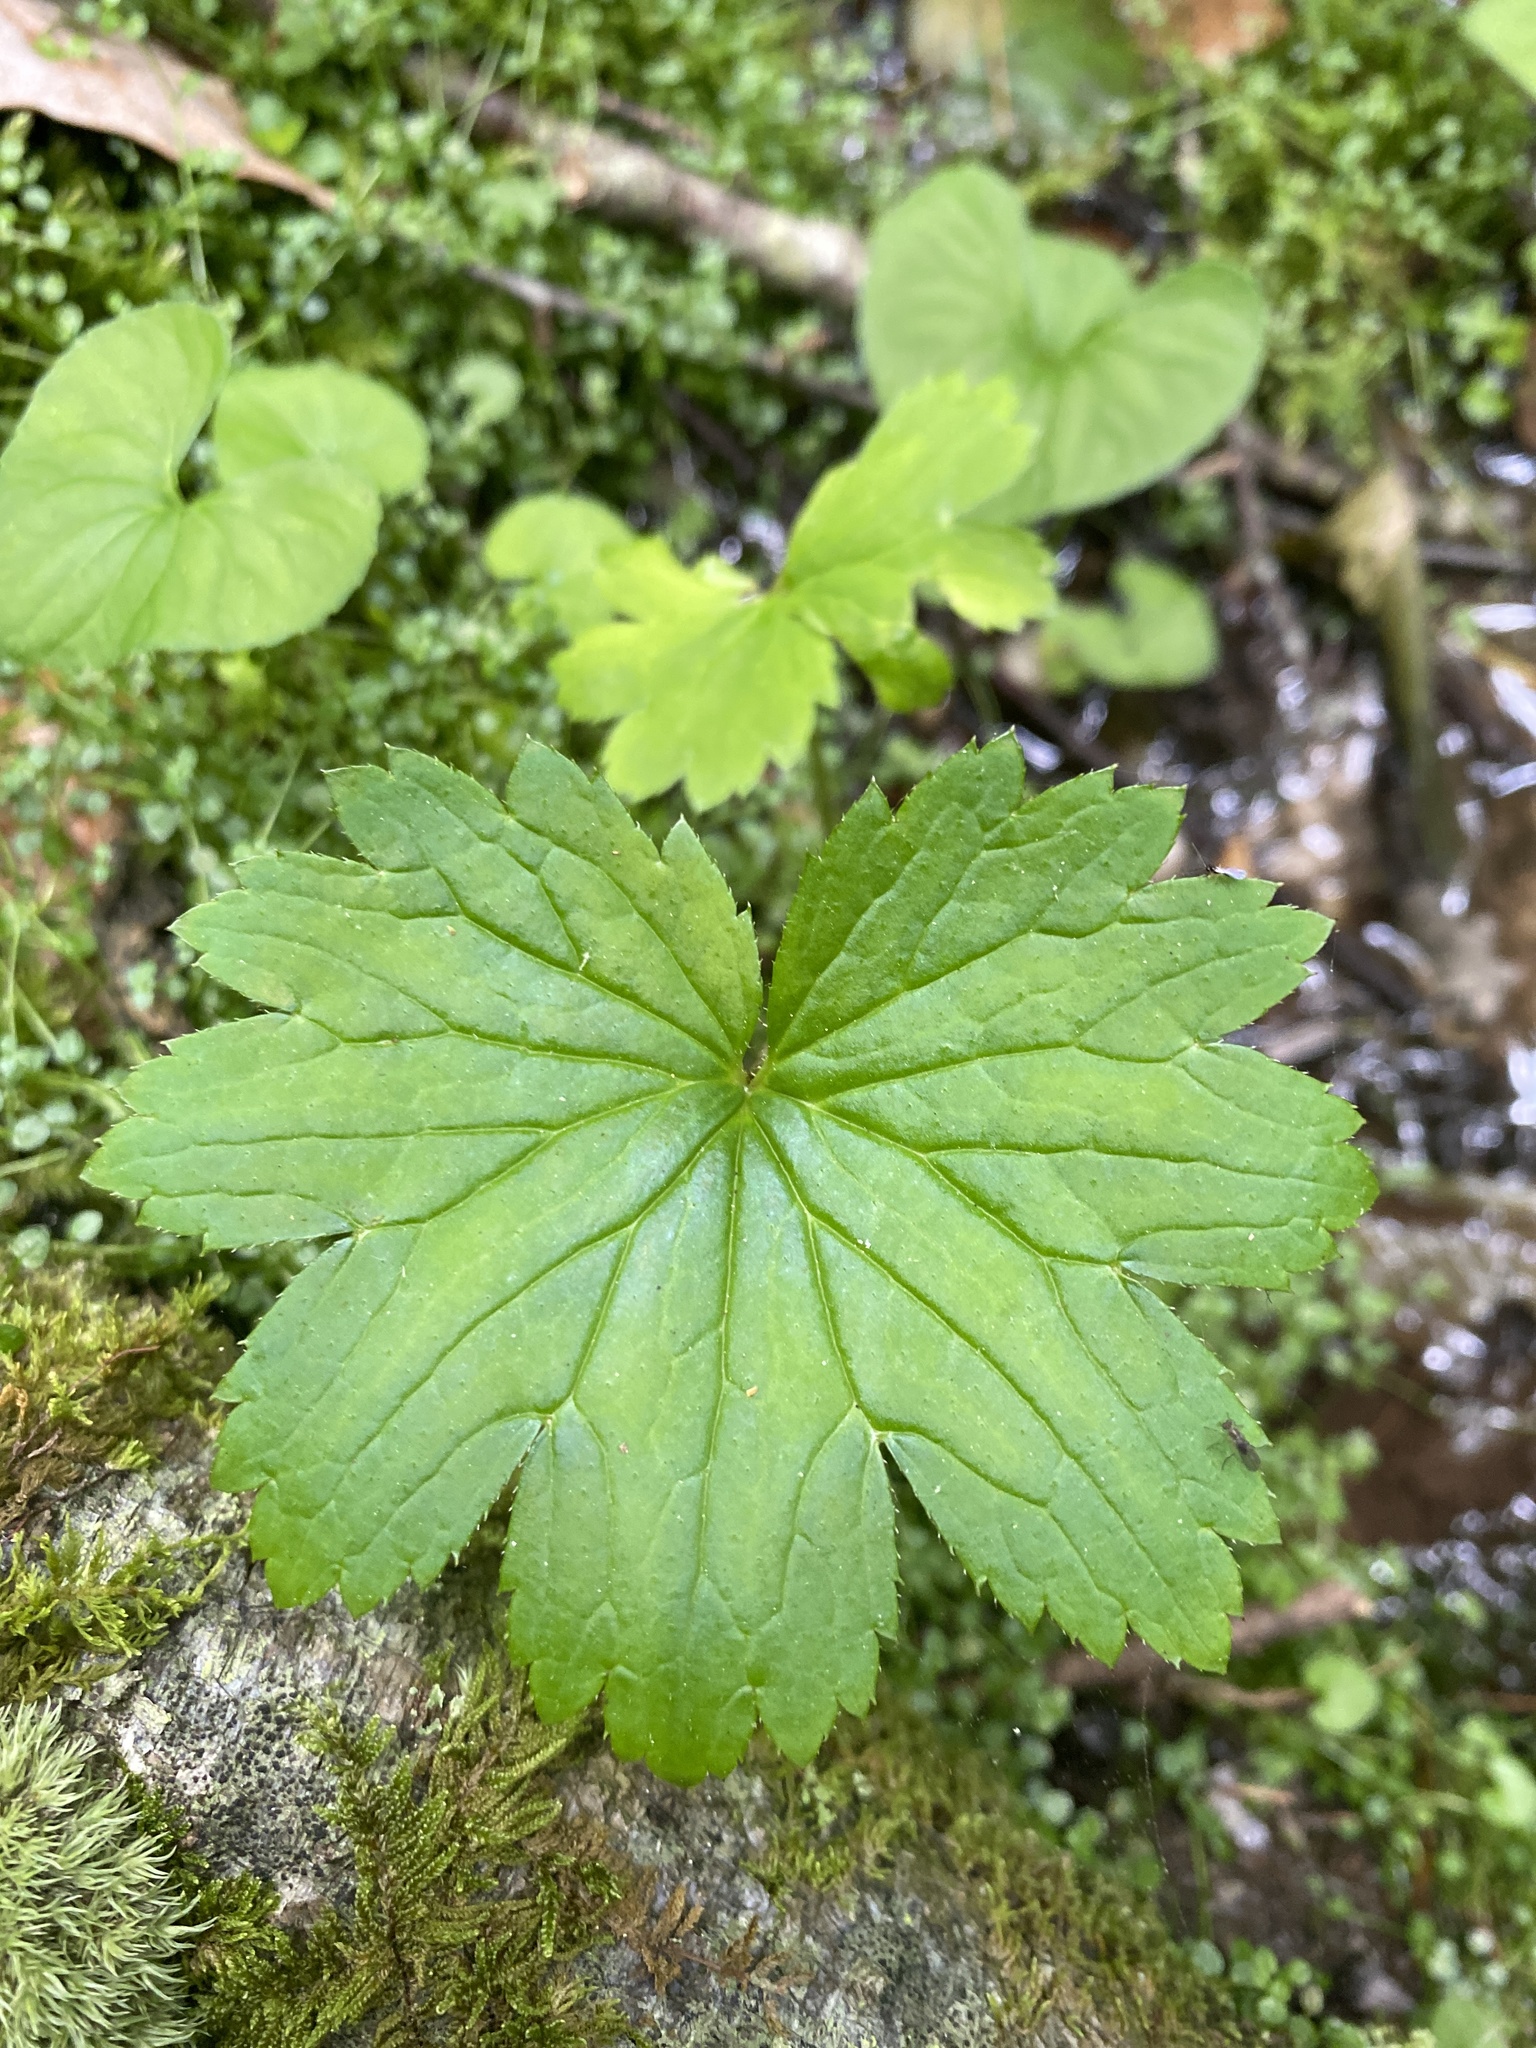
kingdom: Plantae
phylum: Tracheophyta
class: Magnoliopsida
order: Saxifragales
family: Saxifragaceae
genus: Boykinia
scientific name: Boykinia aconitifolia
